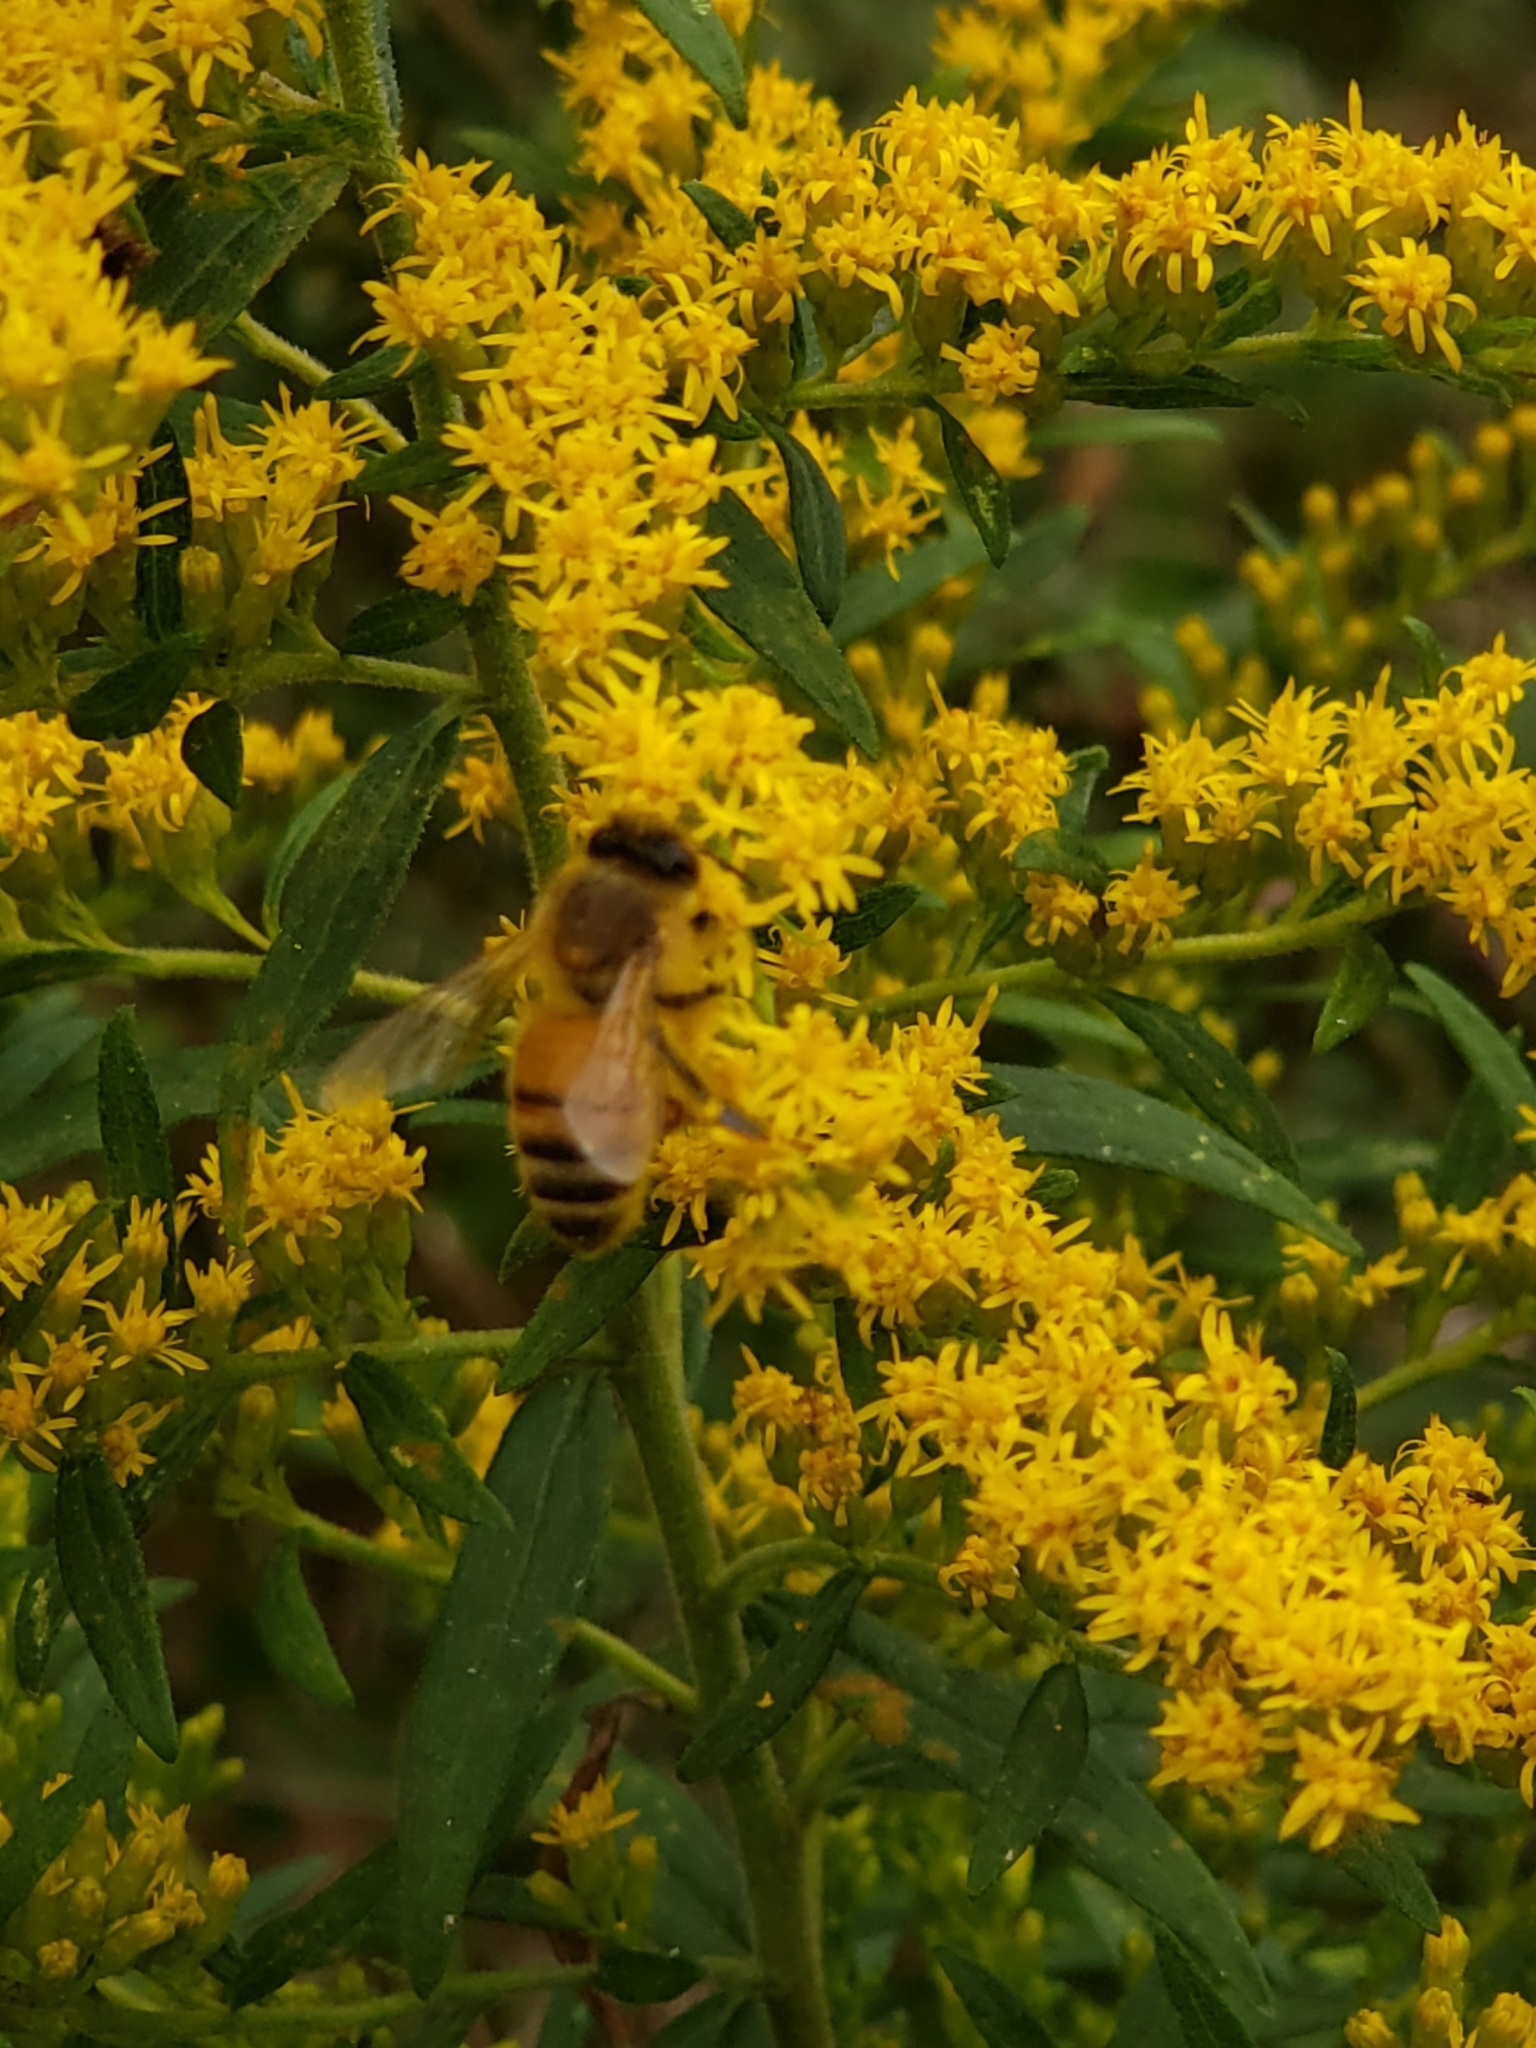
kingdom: Animalia
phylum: Arthropoda
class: Insecta
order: Hymenoptera
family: Apidae
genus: Apis
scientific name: Apis mellifera
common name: Honey bee
